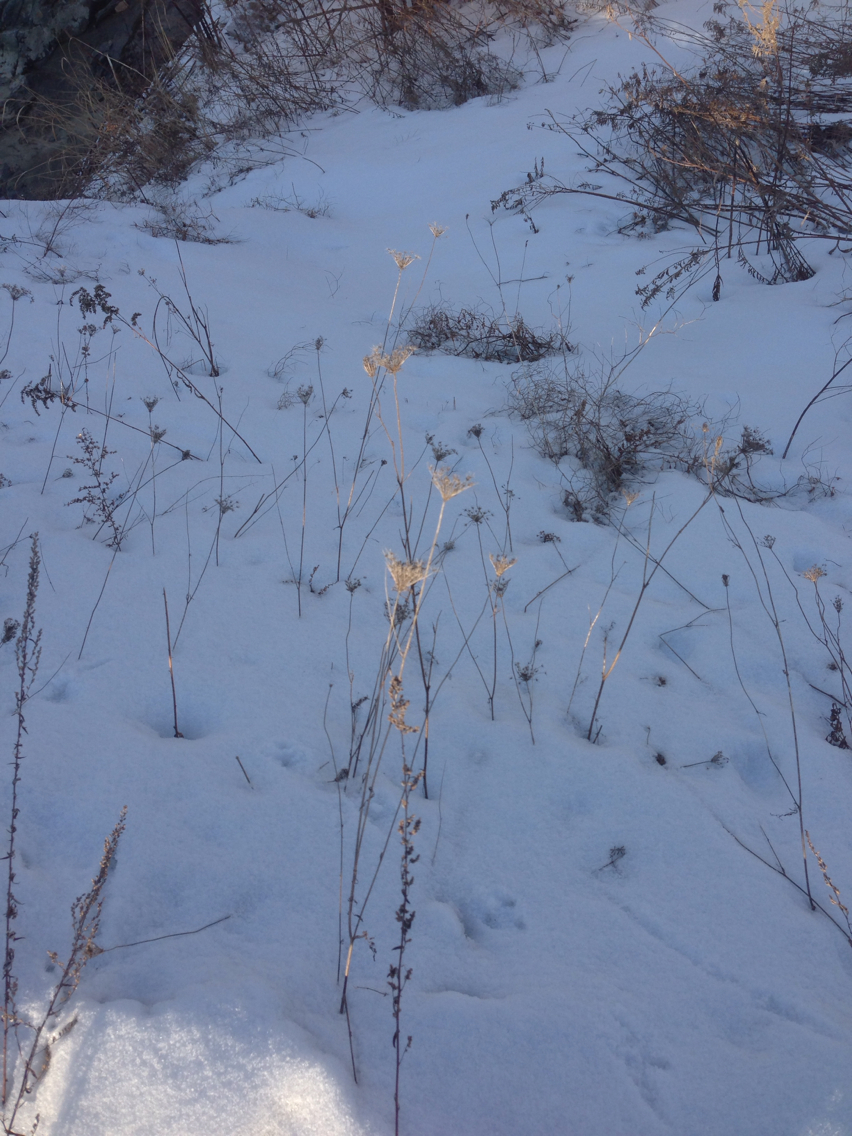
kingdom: Plantae
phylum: Tracheophyta
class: Magnoliopsida
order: Apiales
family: Apiaceae
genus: Daucus
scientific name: Daucus carota
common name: Wild carrot
